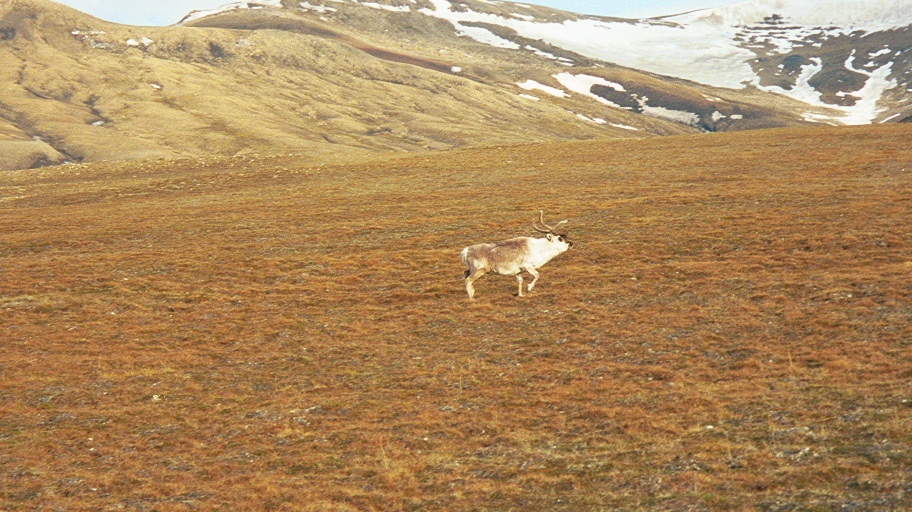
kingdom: Animalia
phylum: Chordata
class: Mammalia
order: Artiodactyla
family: Cervidae
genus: Rangifer
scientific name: Rangifer tarandus
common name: Reindeer
